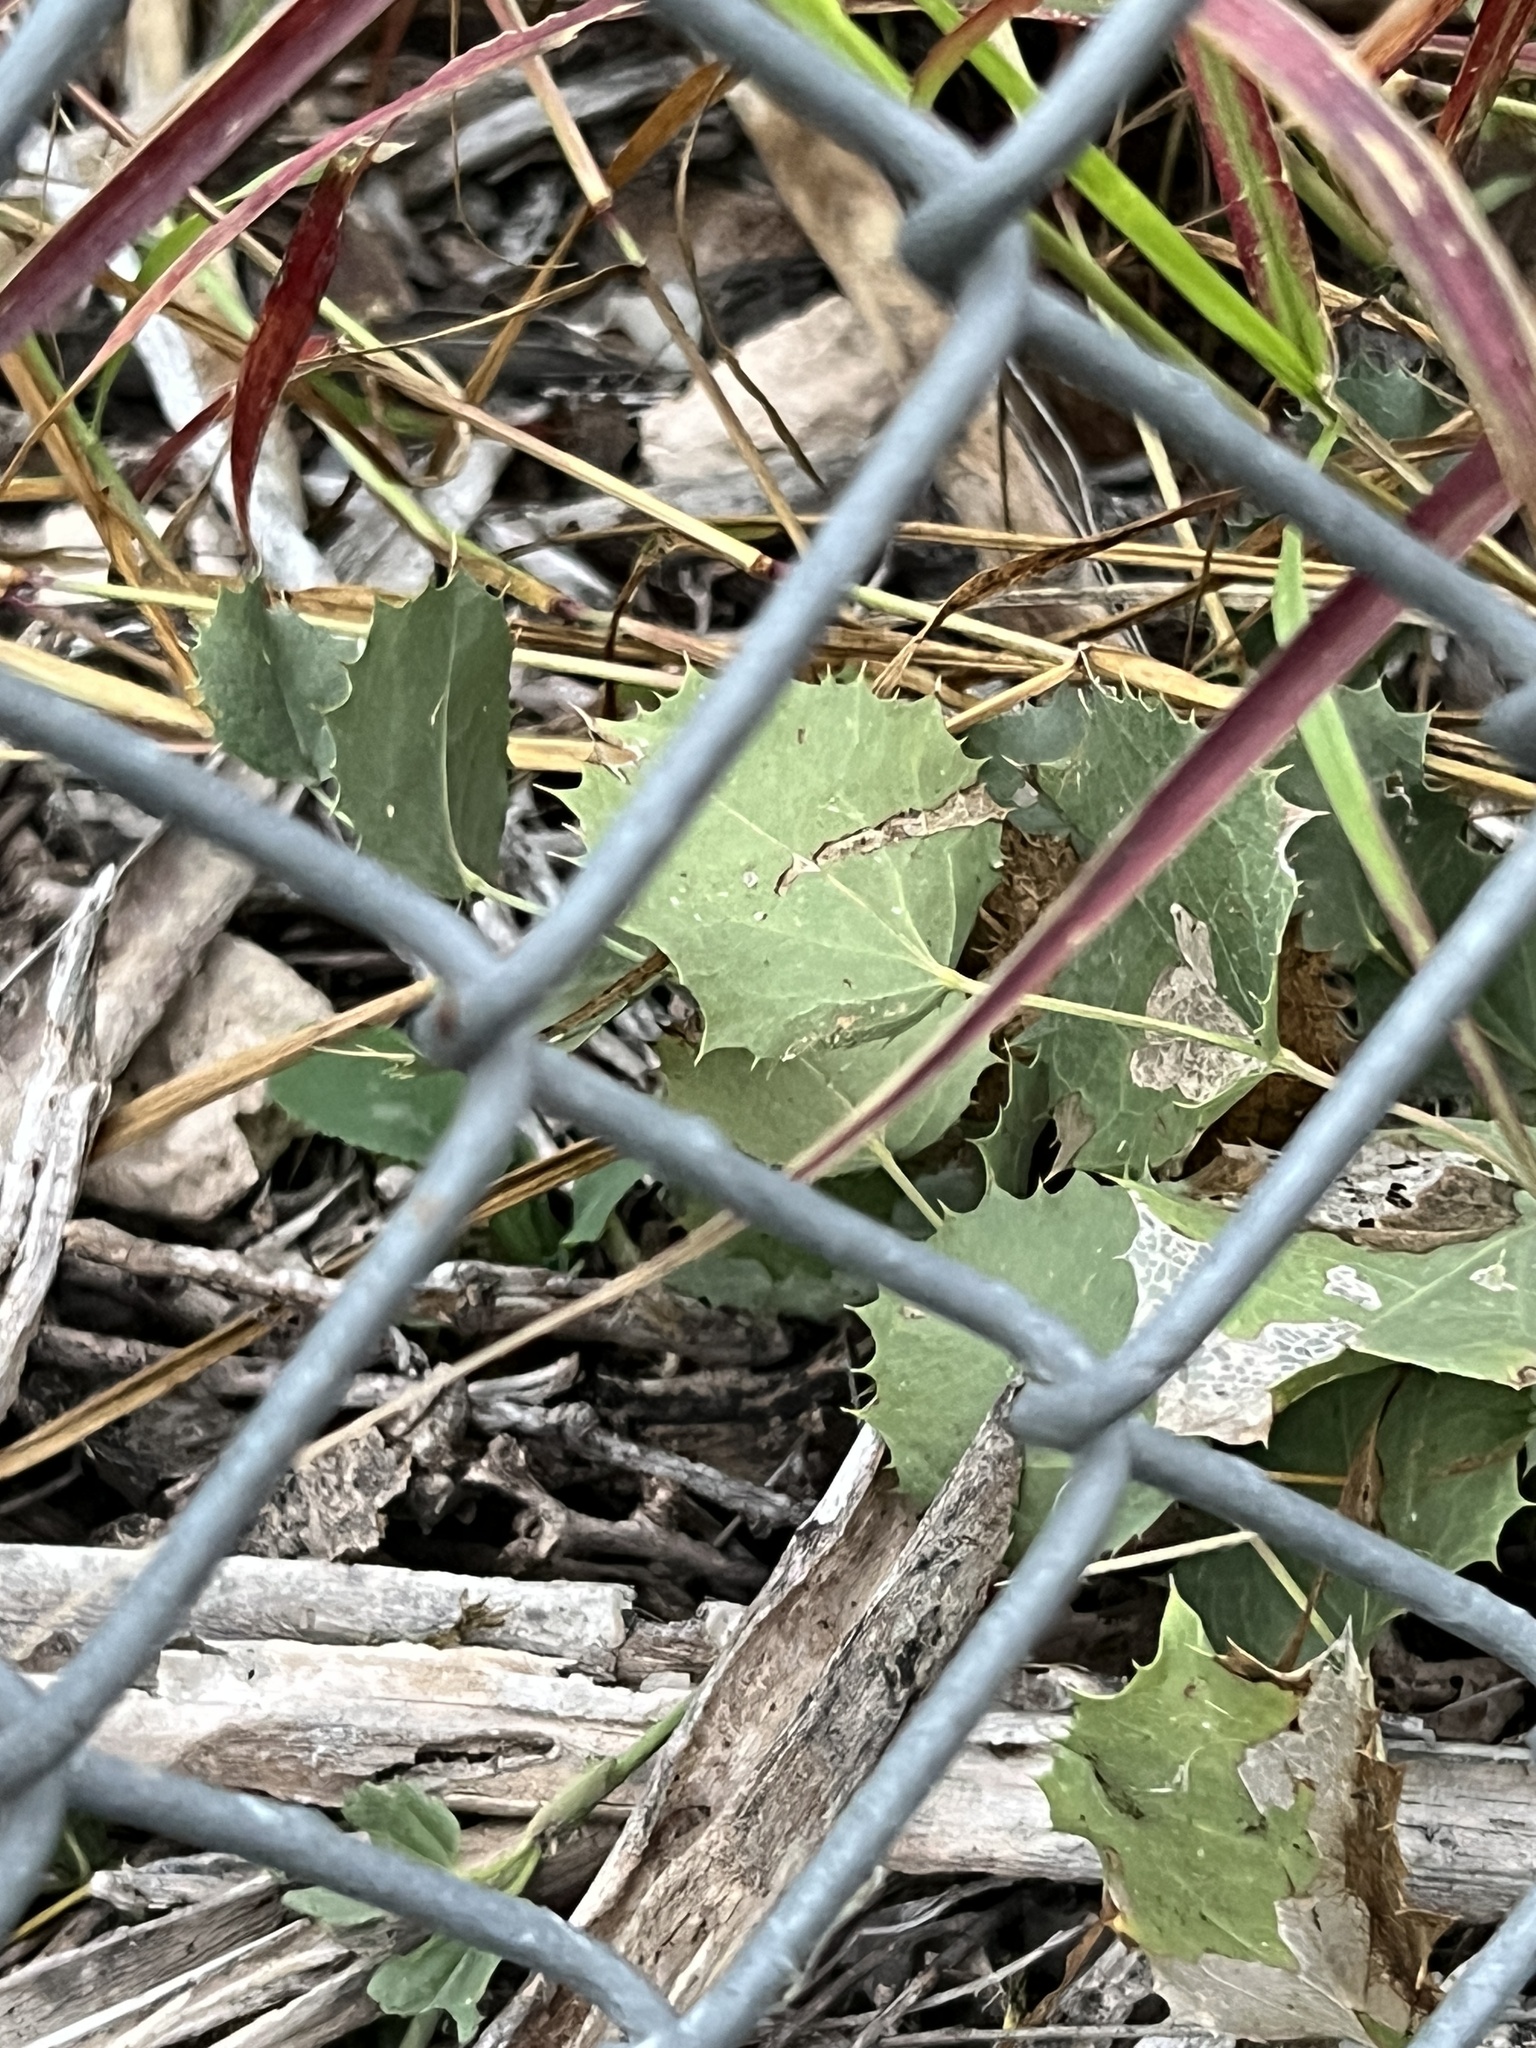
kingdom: Plantae
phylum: Tracheophyta
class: Magnoliopsida
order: Asterales
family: Asteraceae
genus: Acourtia
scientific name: Acourtia nana
